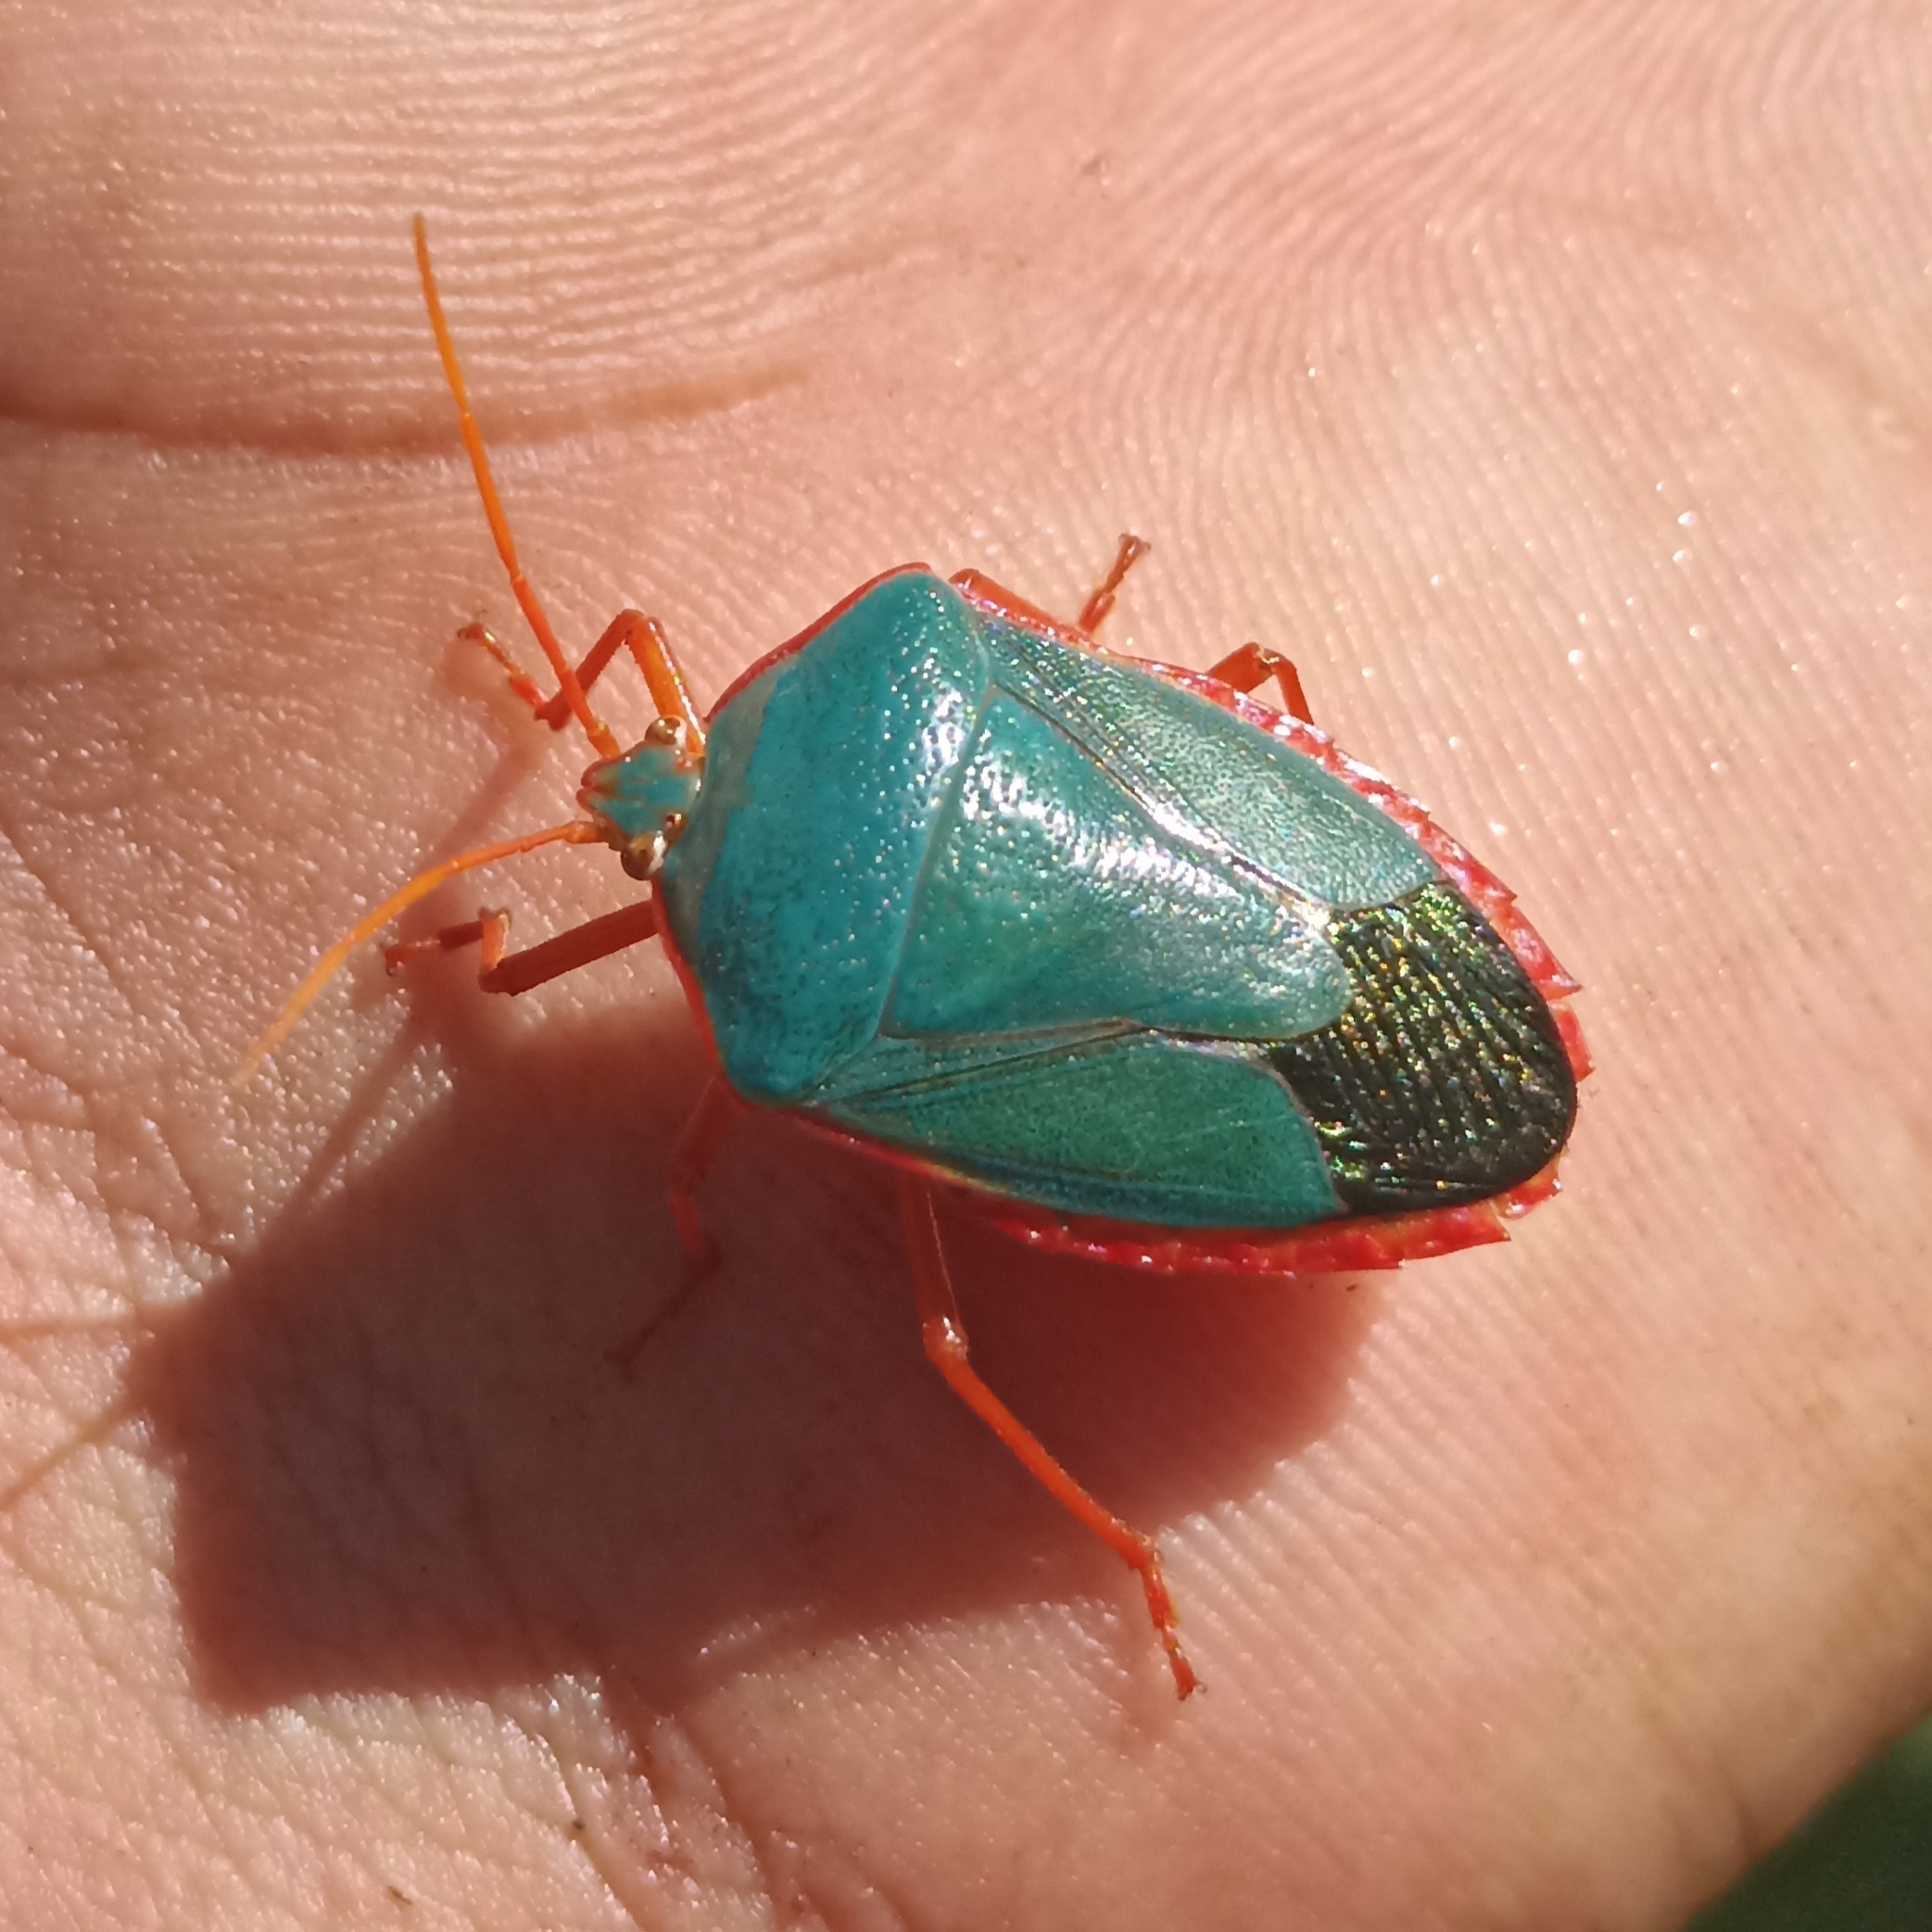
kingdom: Animalia
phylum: Arthropoda
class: Insecta
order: Hemiptera
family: Pentatomidae
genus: Edessa
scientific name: Edessa rufomarginata
